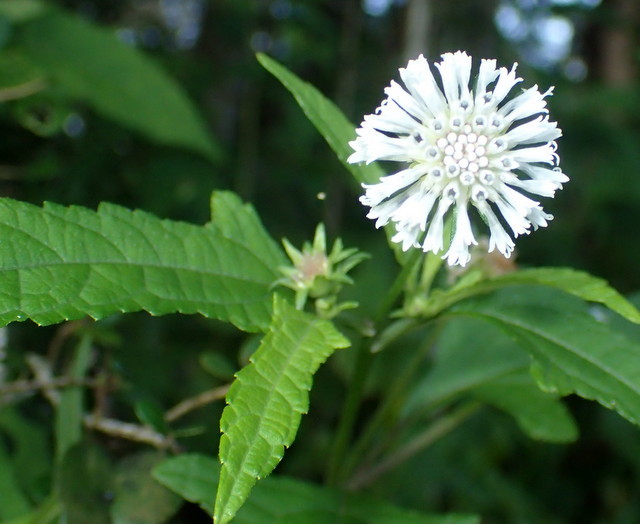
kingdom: Plantae
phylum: Tracheophyta
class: Magnoliopsida
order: Asterales
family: Asteraceae
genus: Melanthera
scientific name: Melanthera nivea
